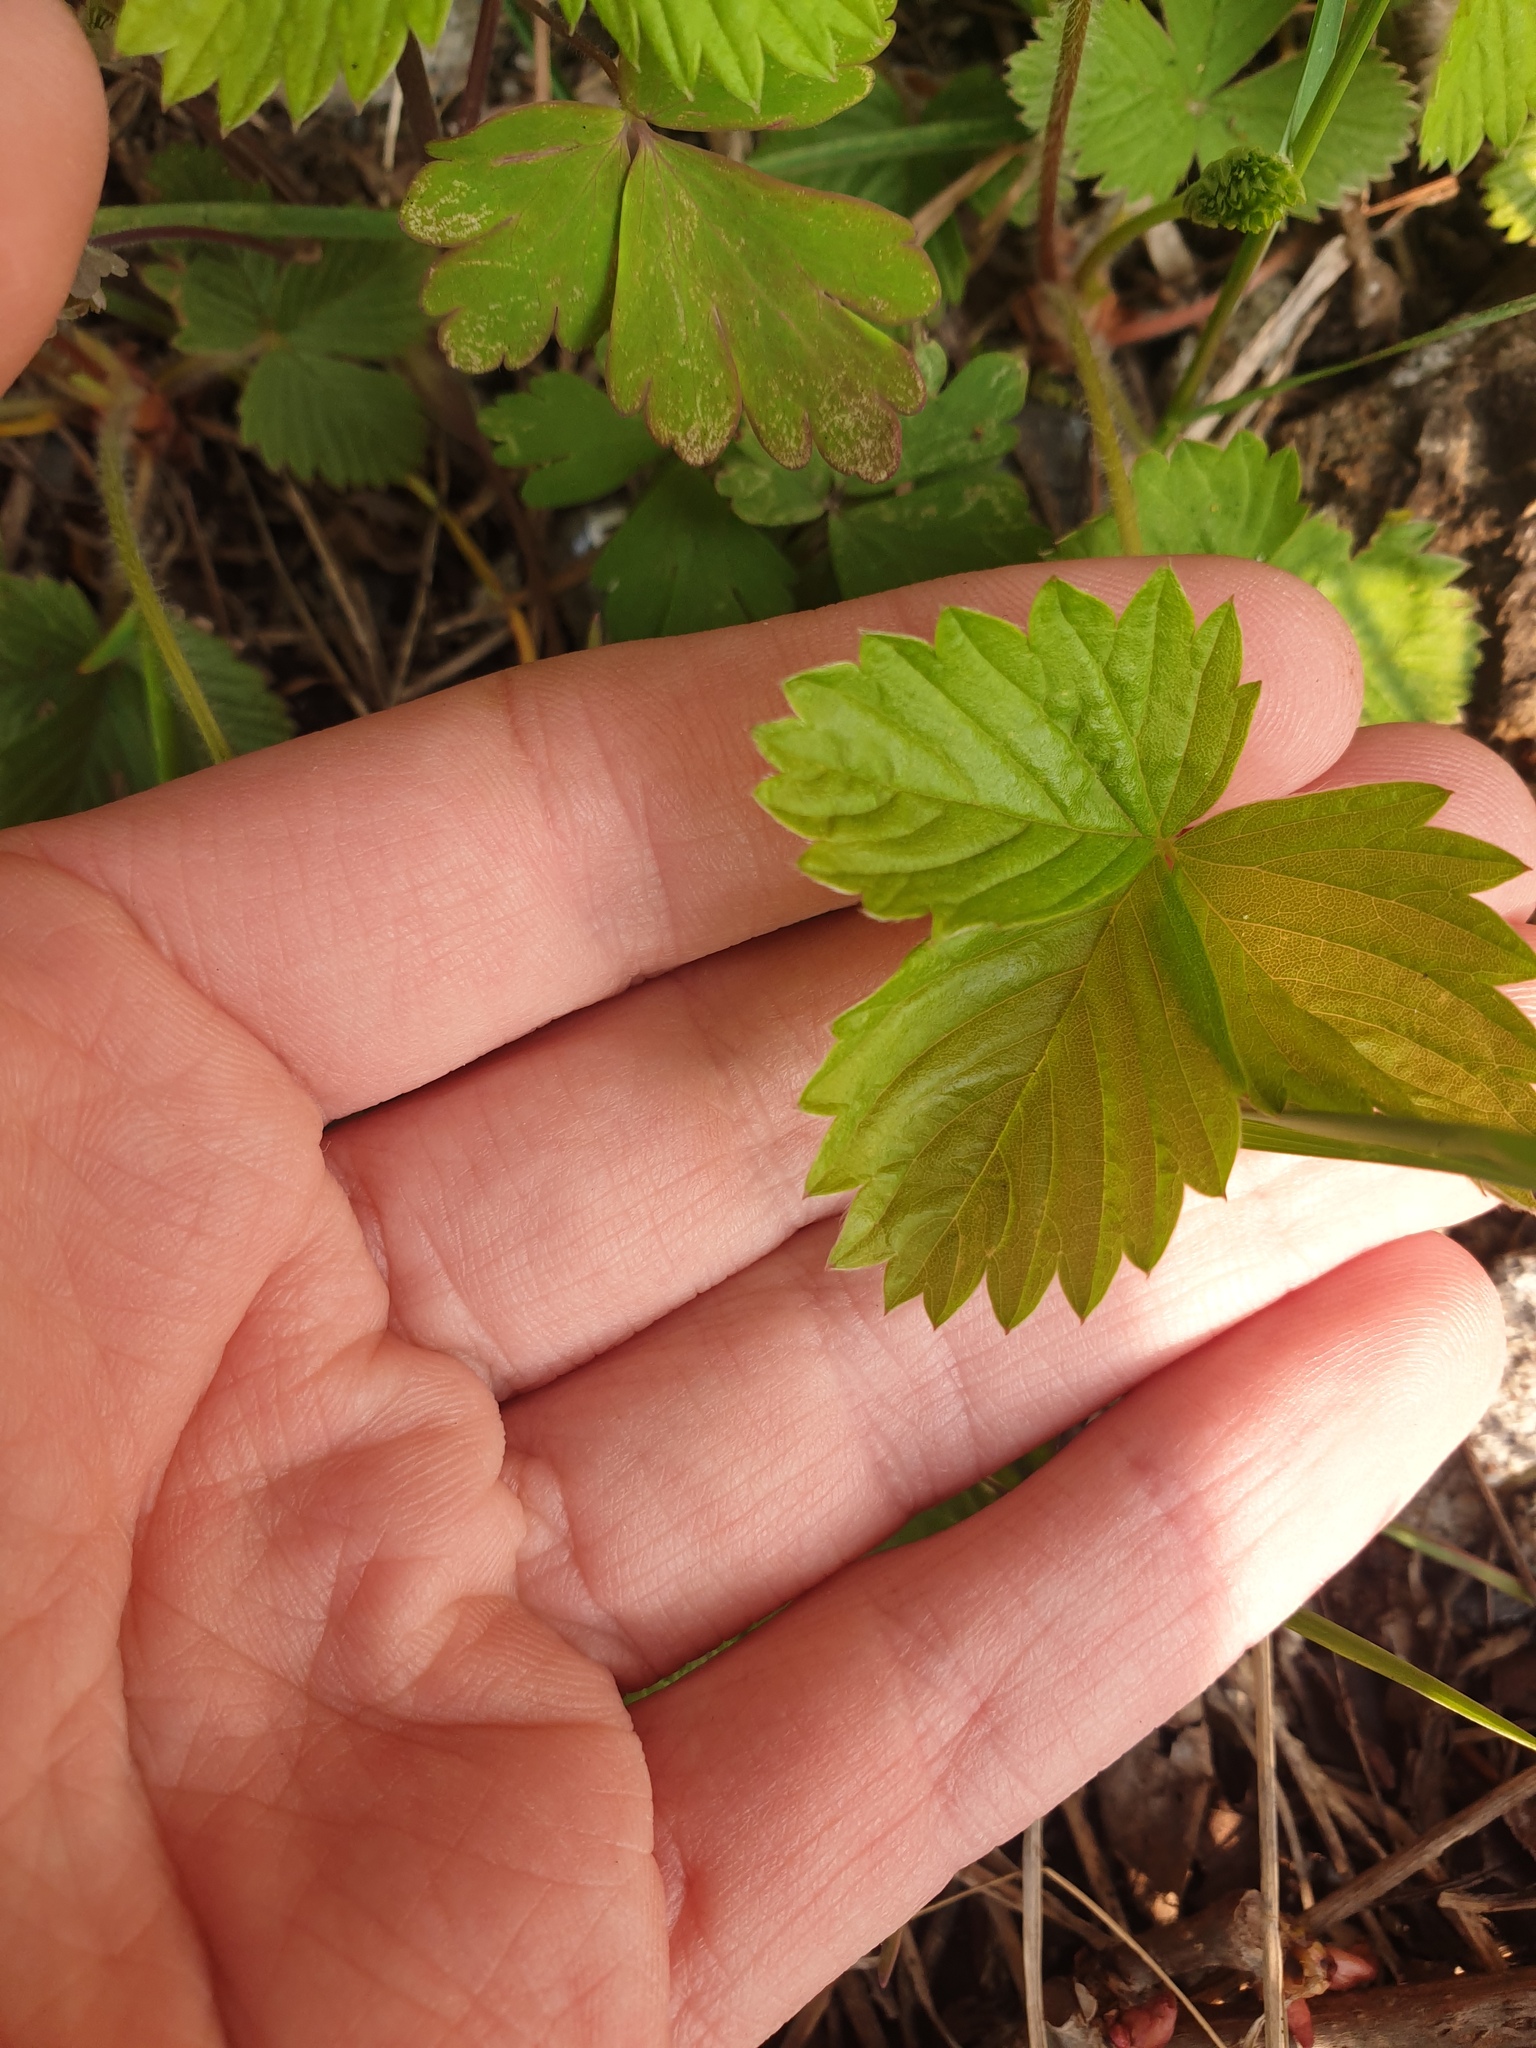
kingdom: Plantae
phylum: Tracheophyta
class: Magnoliopsida
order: Rosales
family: Rosaceae
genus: Fragaria
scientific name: Fragaria vesca
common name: Wild strawberry
